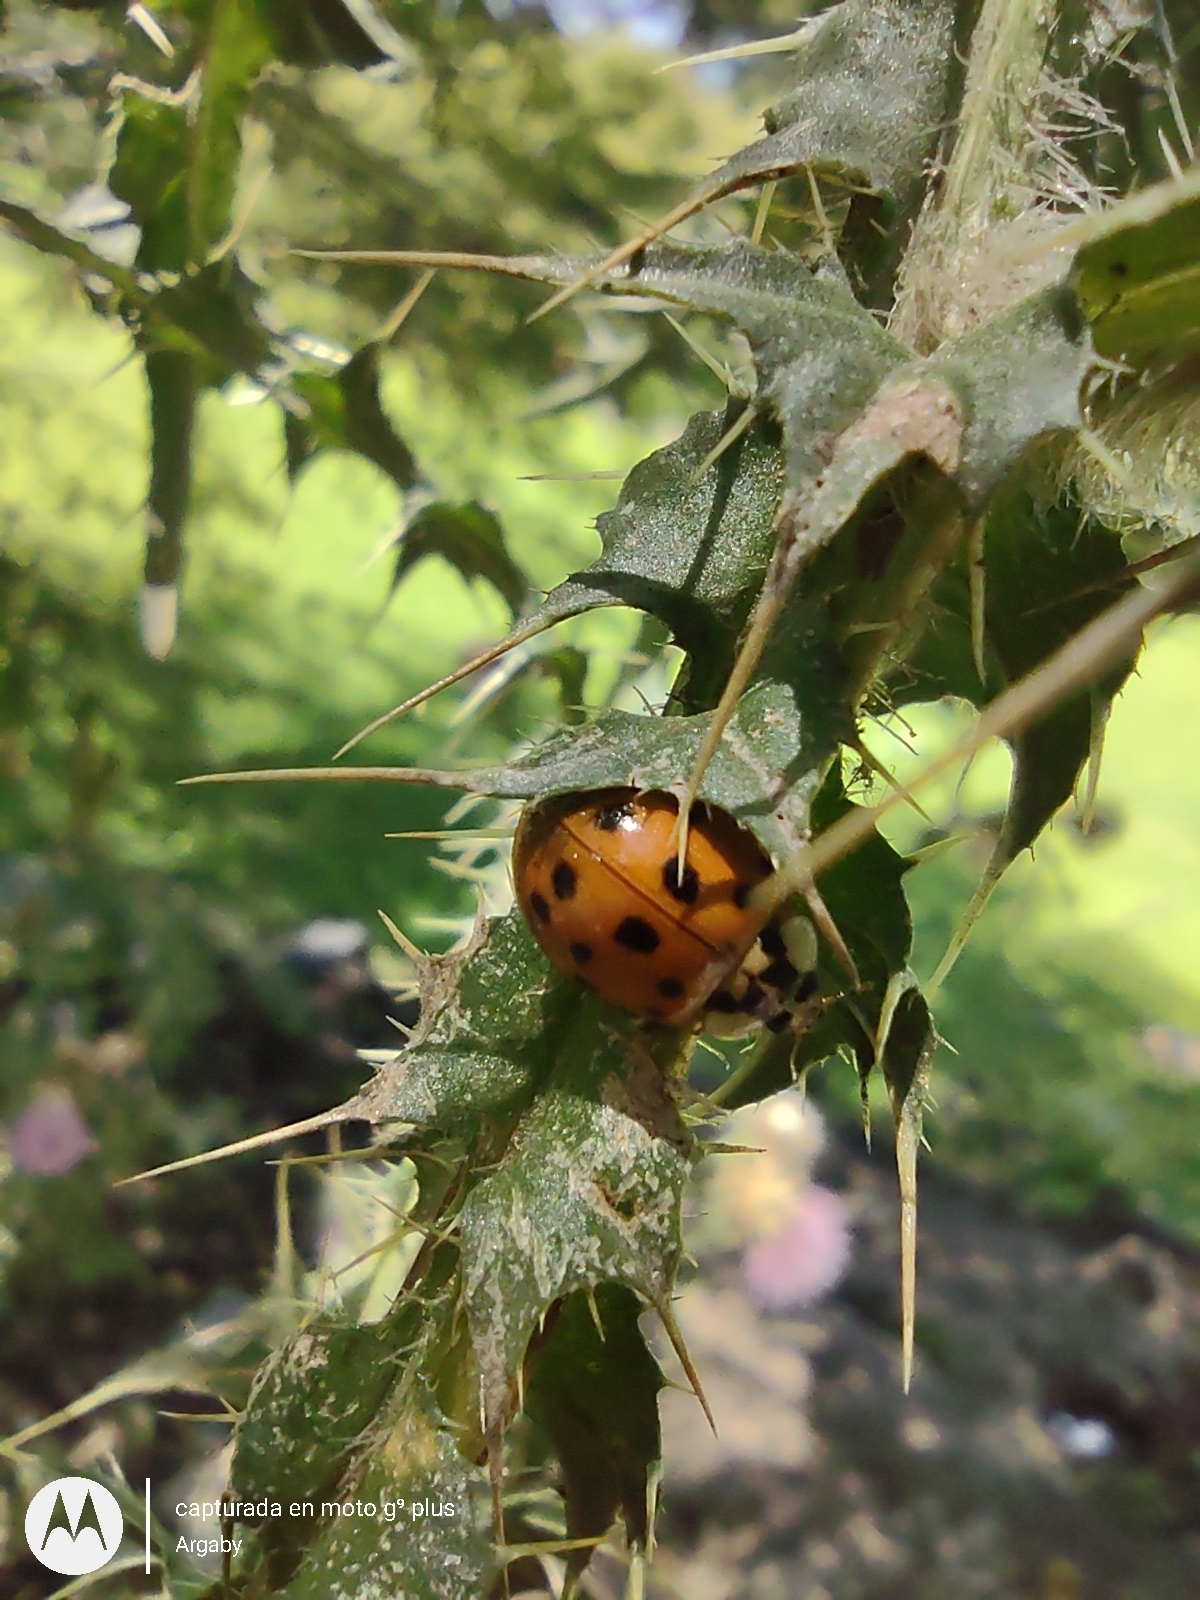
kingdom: Animalia
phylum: Arthropoda
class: Insecta
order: Coleoptera
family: Coccinellidae
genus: Harmonia
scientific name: Harmonia axyridis
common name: Harlequin ladybird
